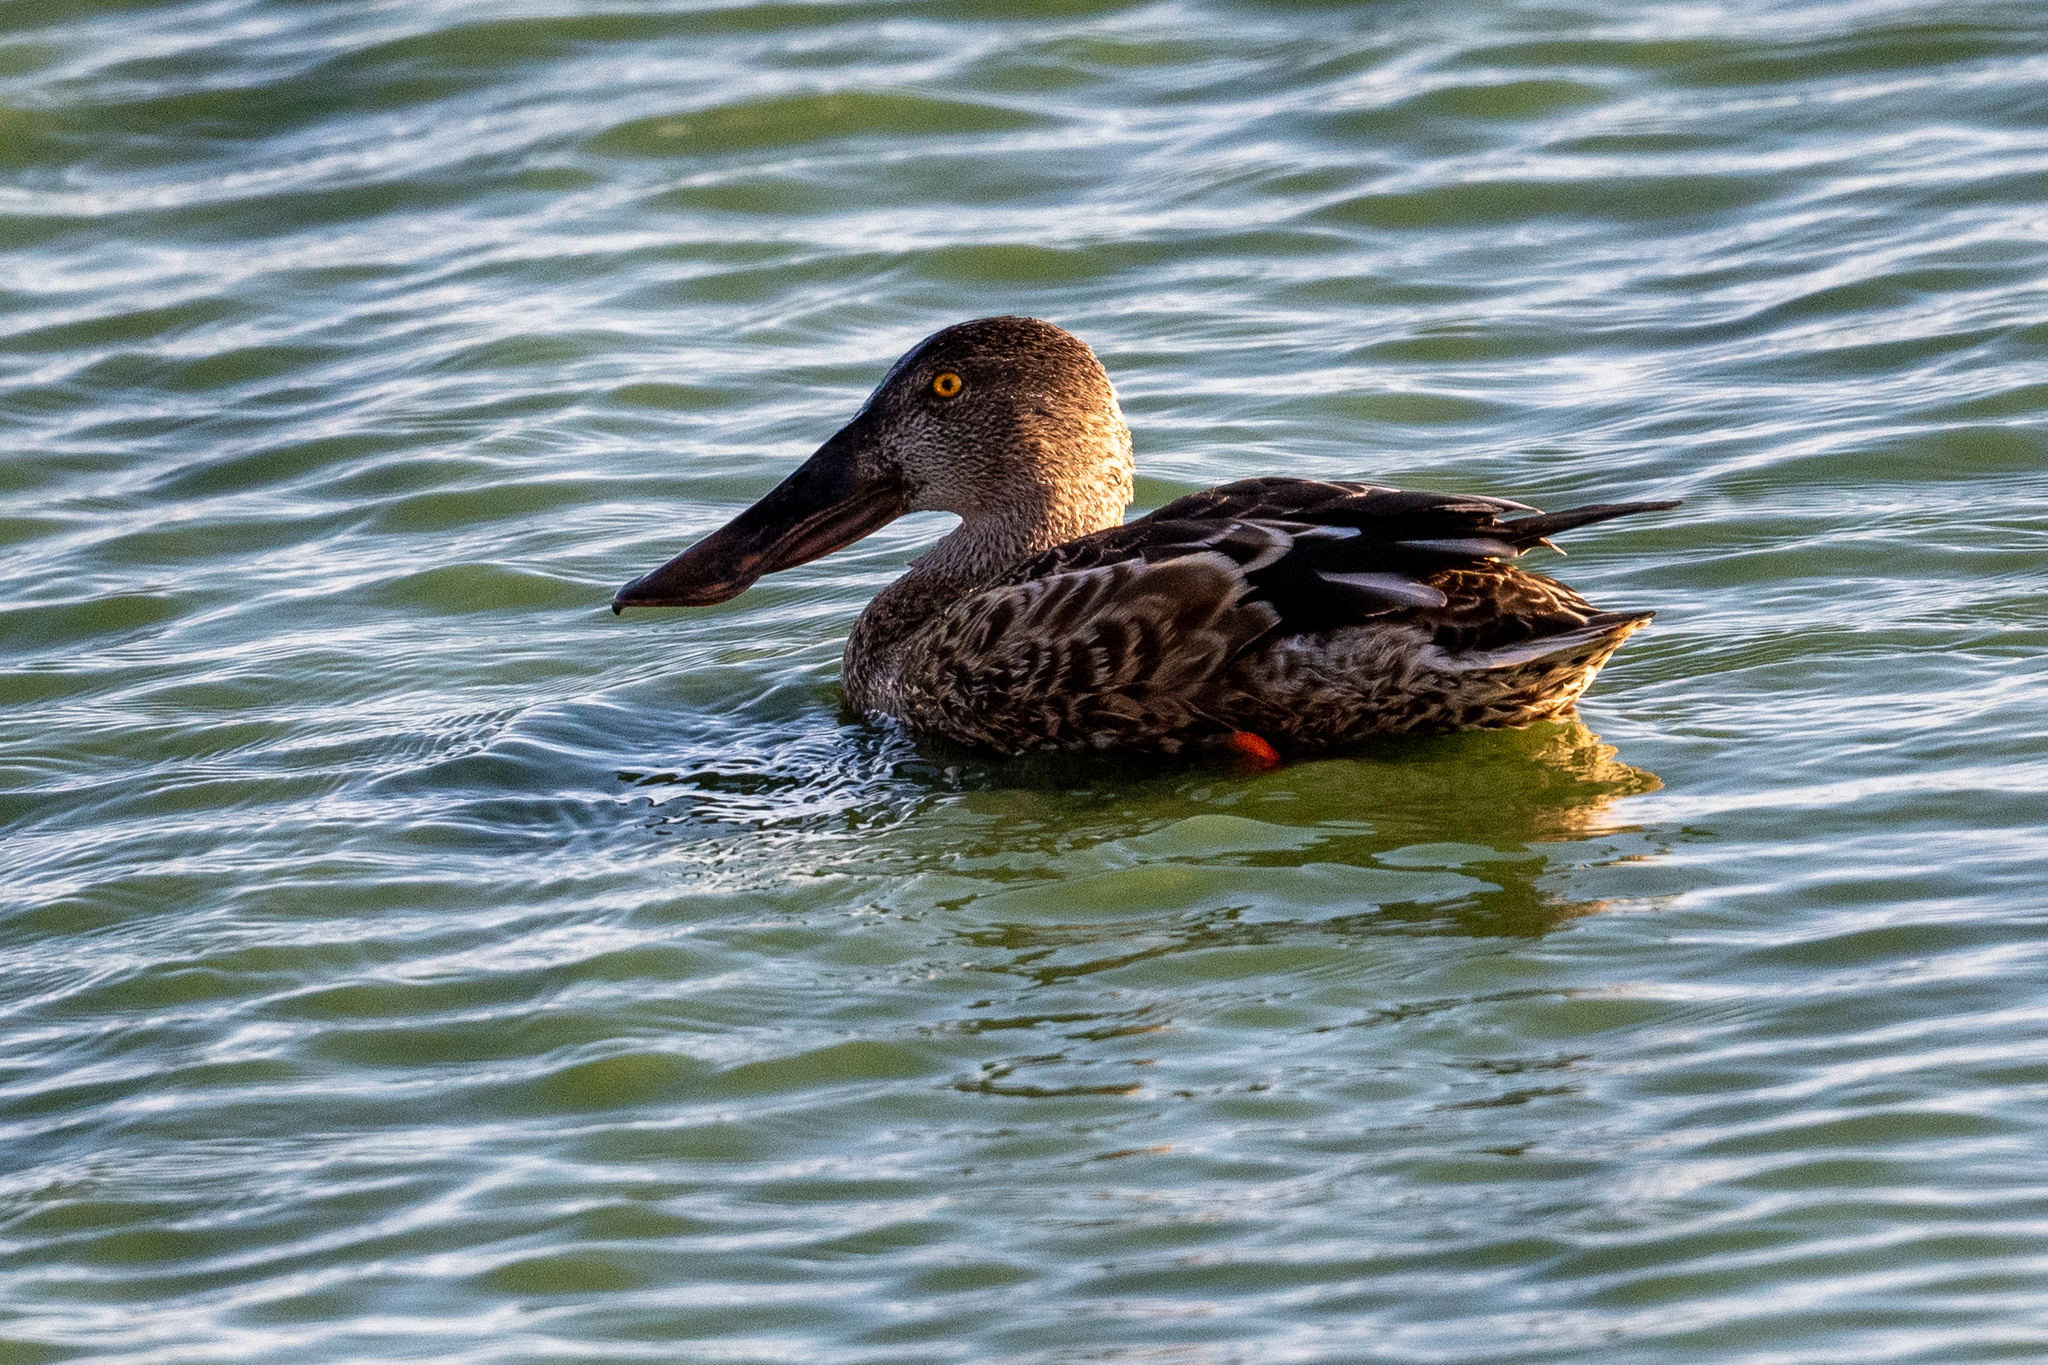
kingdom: Animalia
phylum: Chordata
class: Aves
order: Anseriformes
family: Anatidae
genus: Spatula
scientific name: Spatula clypeata
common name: Northern shoveler
